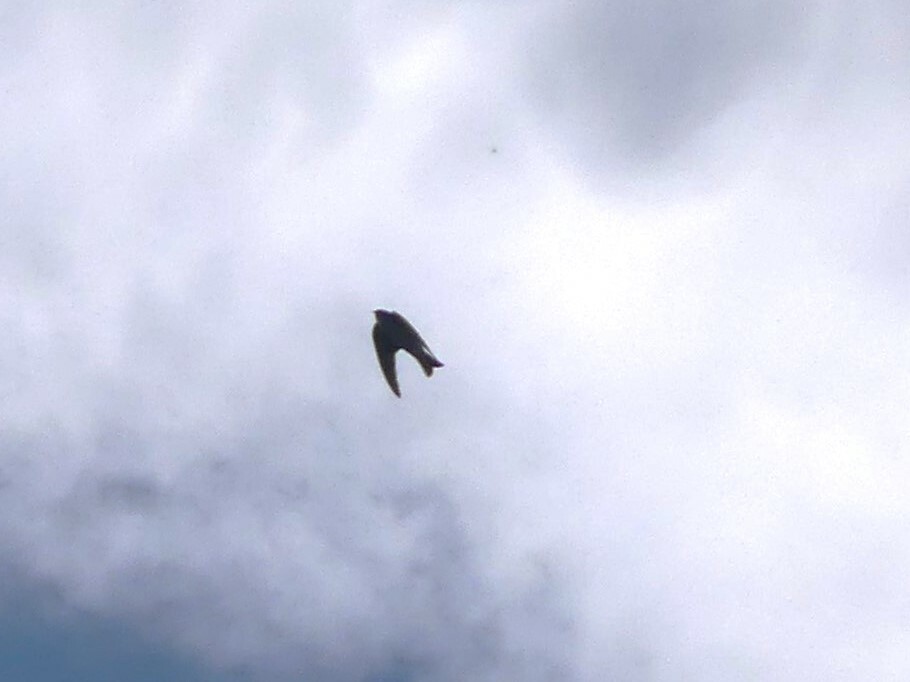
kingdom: Animalia
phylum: Chordata
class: Aves
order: Passeriformes
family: Hirundinidae
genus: Tachycineta
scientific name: Tachycineta thalassina
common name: Violet-green swallow
